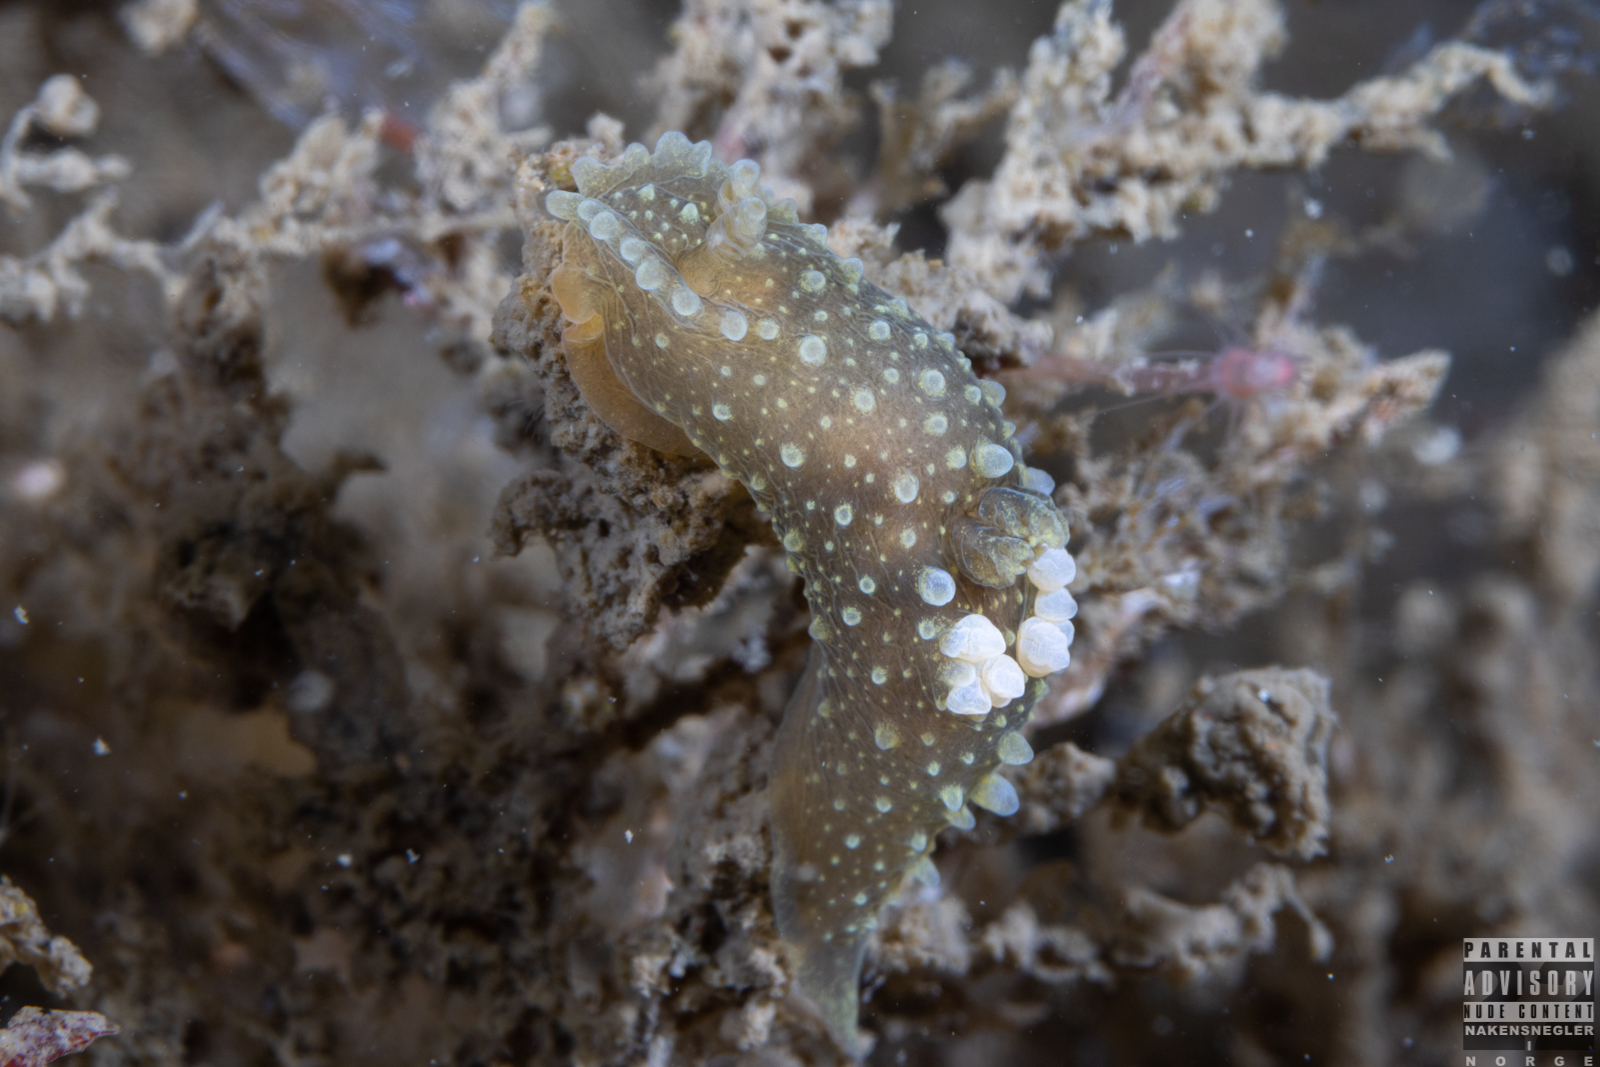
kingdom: Animalia
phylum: Mollusca
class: Gastropoda
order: Nudibranchia
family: Polyceridae
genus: Palio
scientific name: Palio dubia
